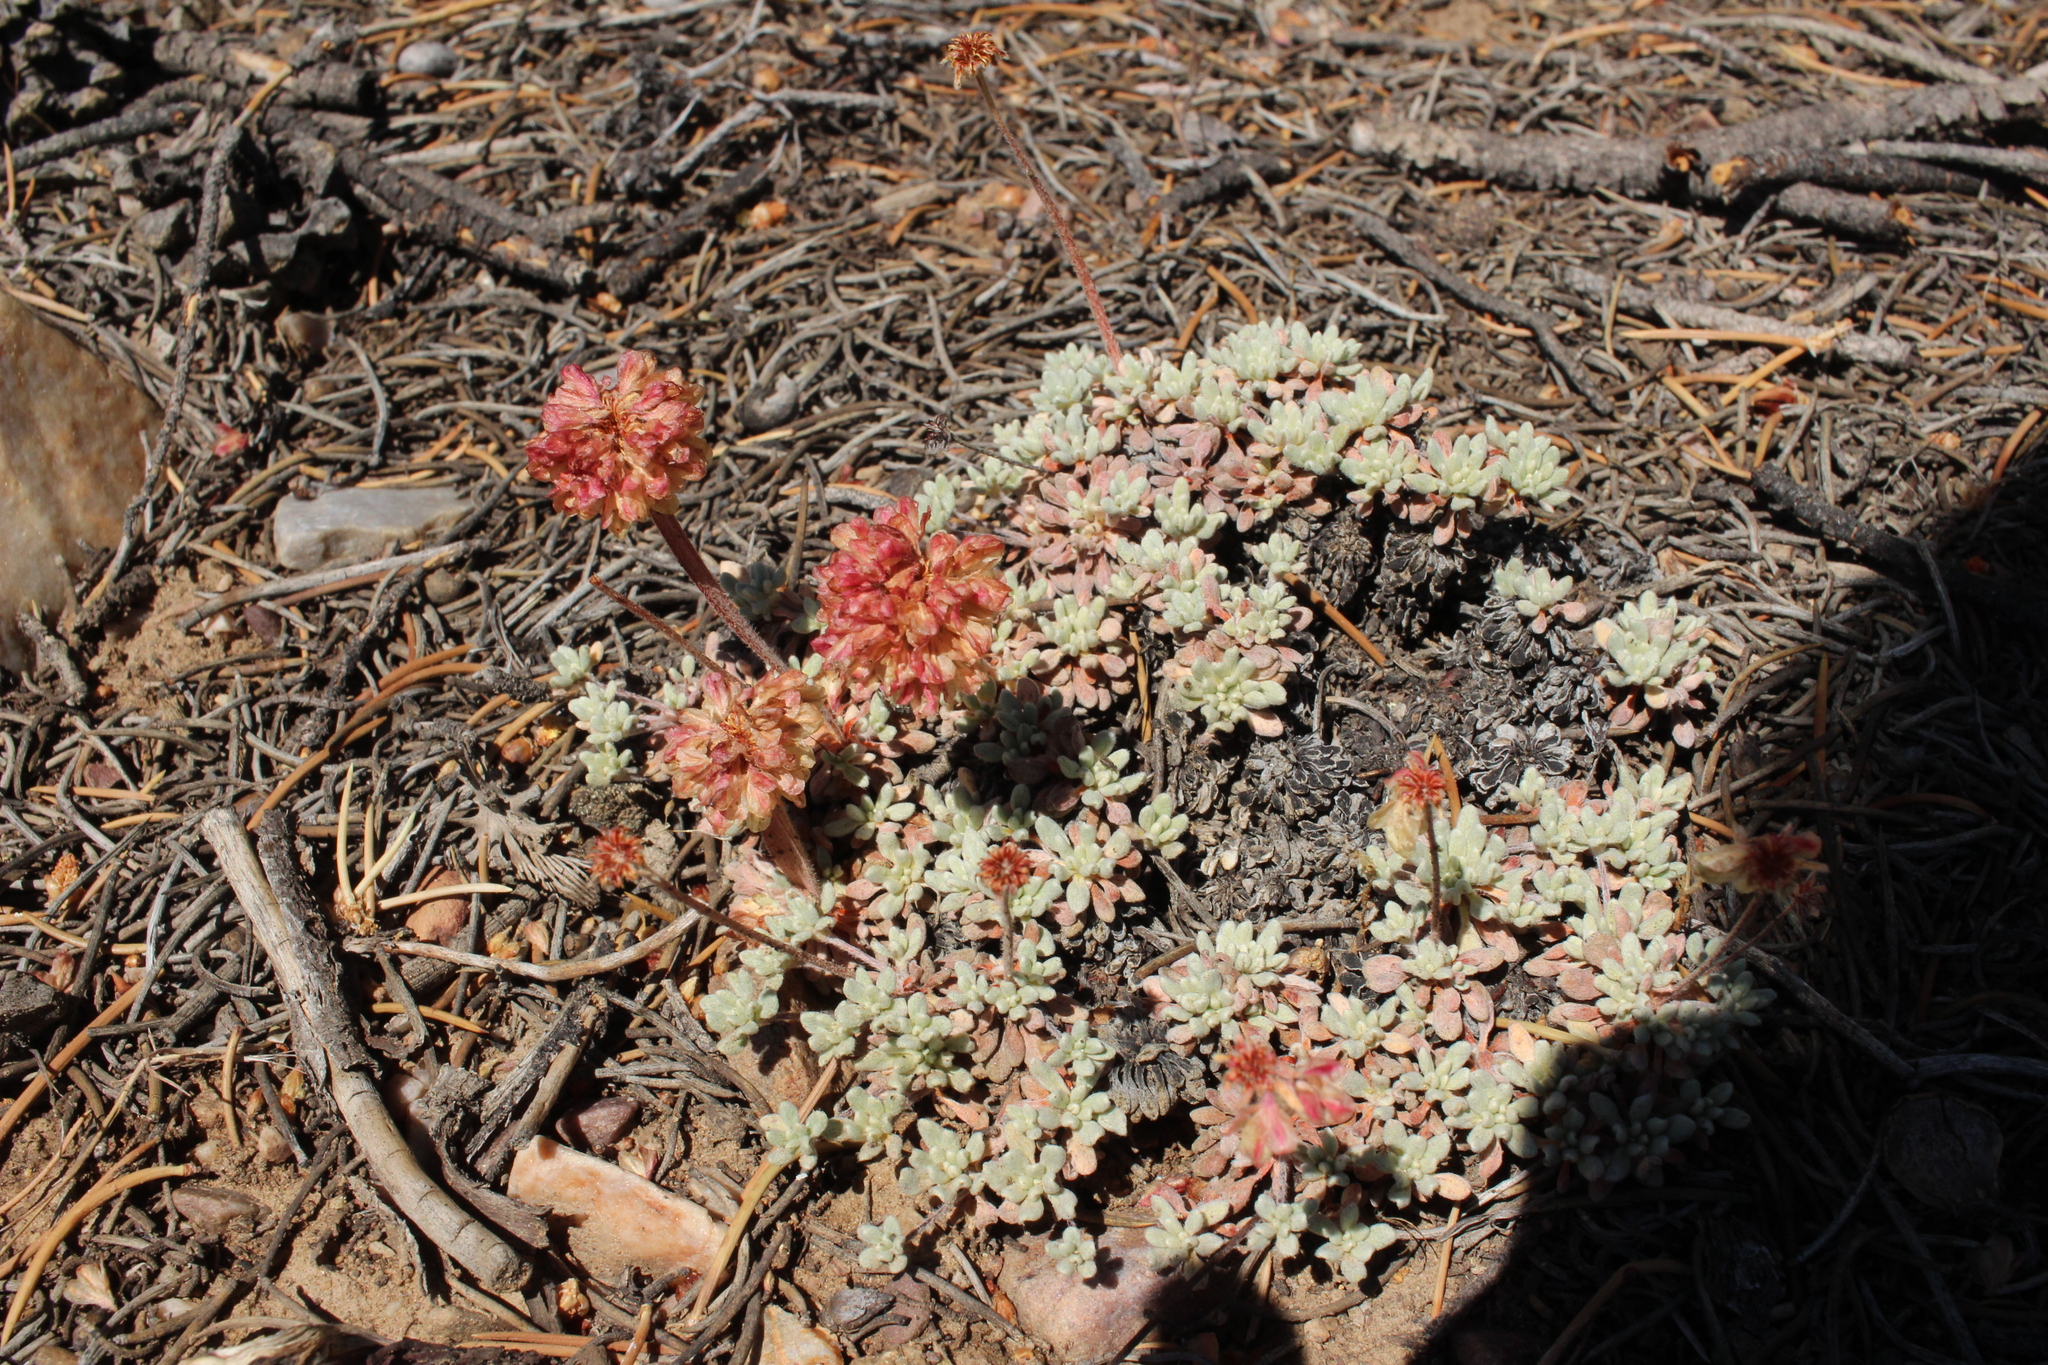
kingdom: Plantae
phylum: Tracheophyta
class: Magnoliopsida
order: Caryophyllales
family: Polygonaceae
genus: Eriogonum
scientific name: Eriogonum caespitosum
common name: Matted wild buckwheat
